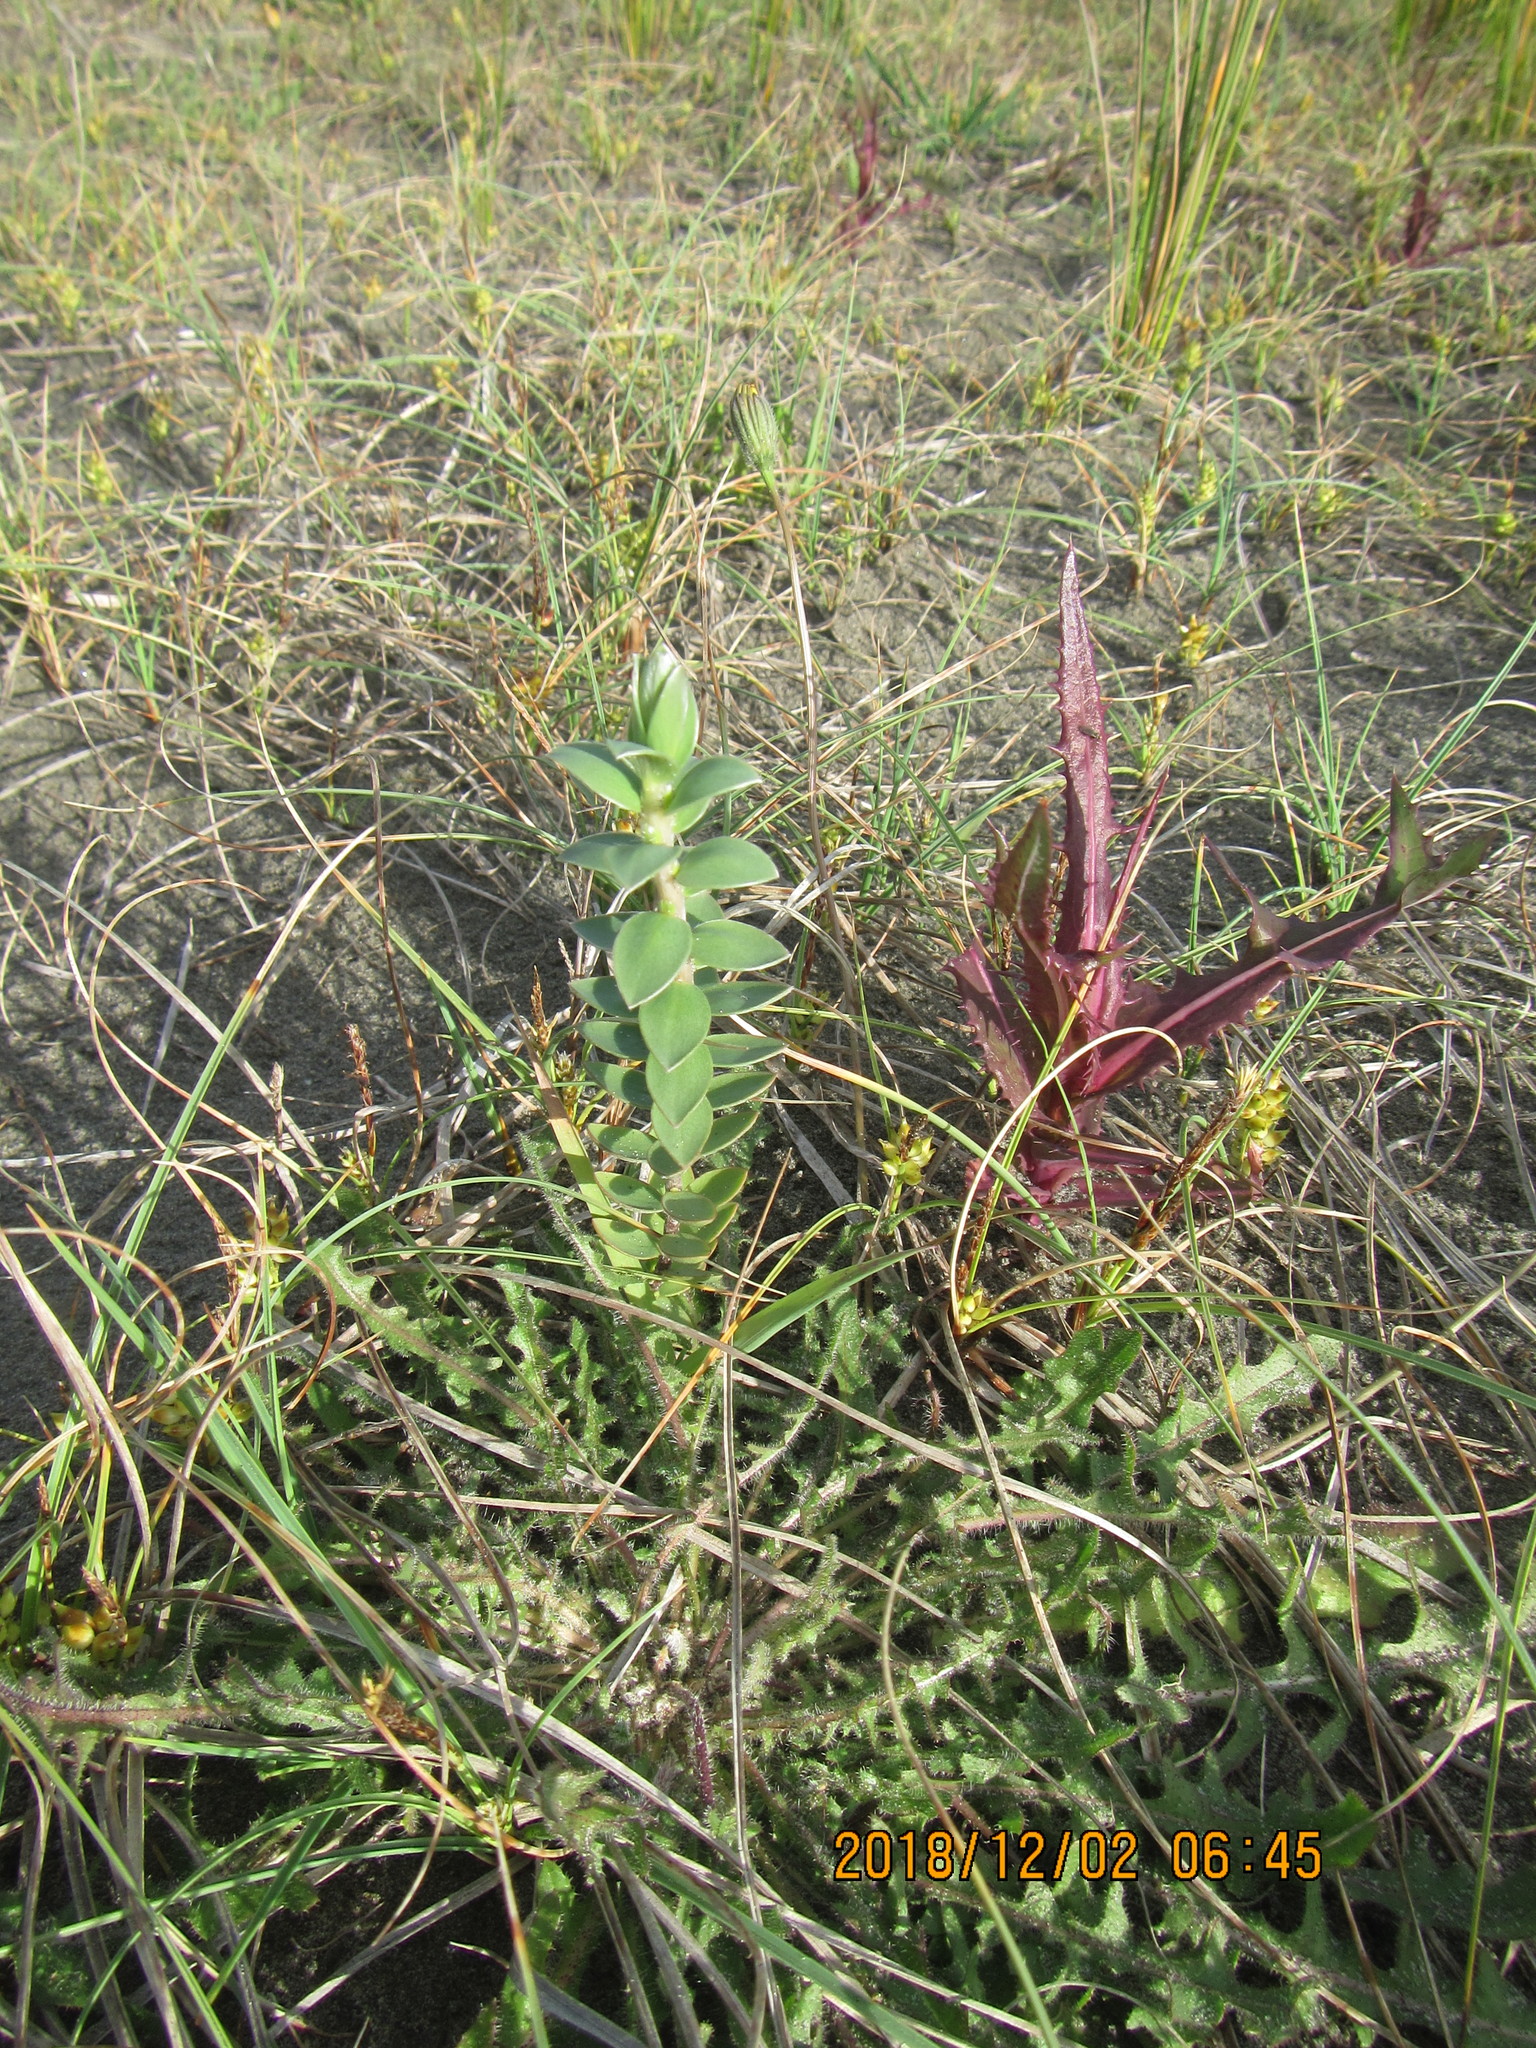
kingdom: Plantae
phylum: Tracheophyta
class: Magnoliopsida
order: Malvales
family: Thymelaeaceae
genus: Pimelea
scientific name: Pimelea villosa
